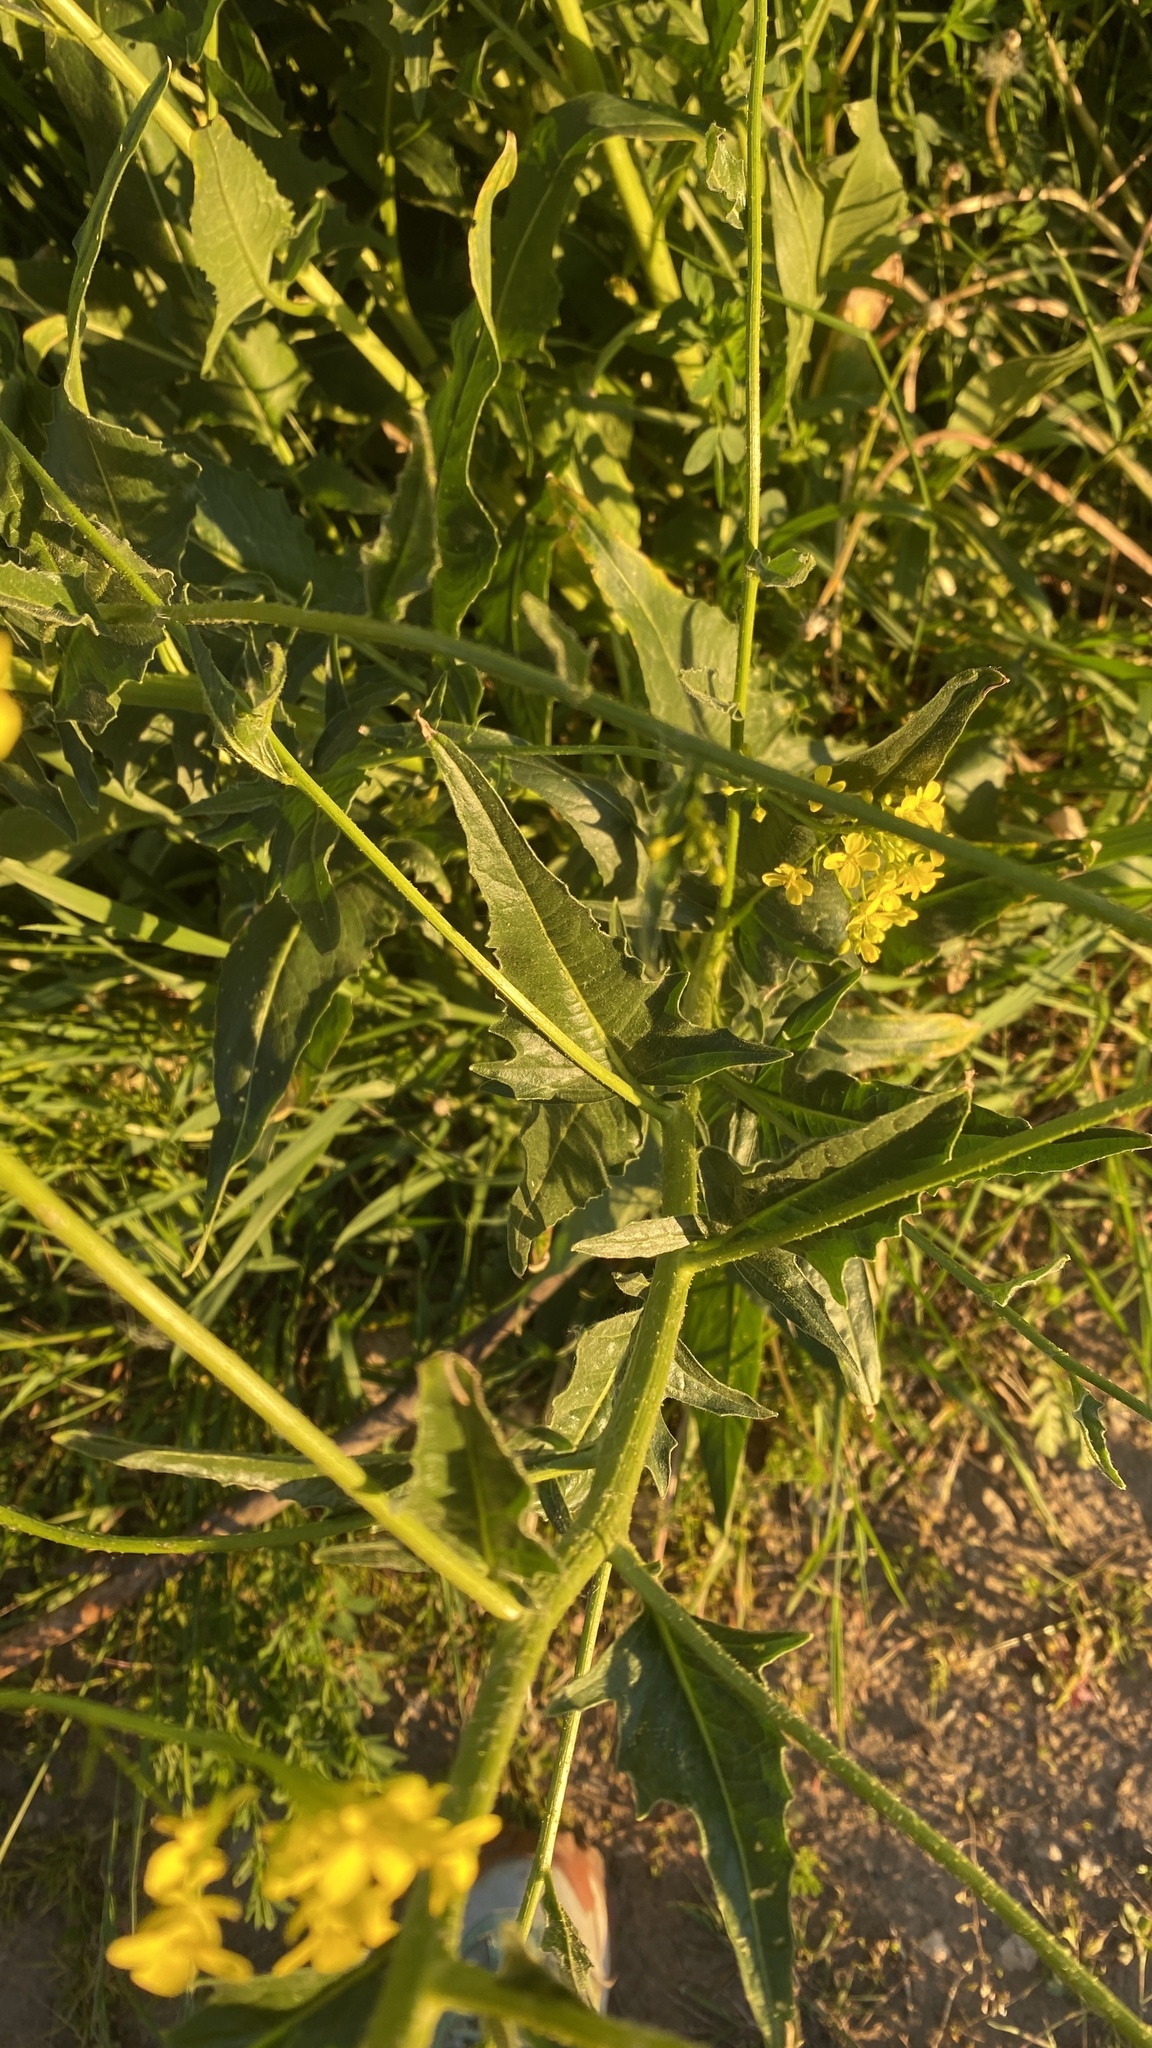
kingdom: Plantae
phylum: Tracheophyta
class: Magnoliopsida
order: Brassicales
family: Brassicaceae
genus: Bunias
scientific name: Bunias orientalis
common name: Warty-cabbage
